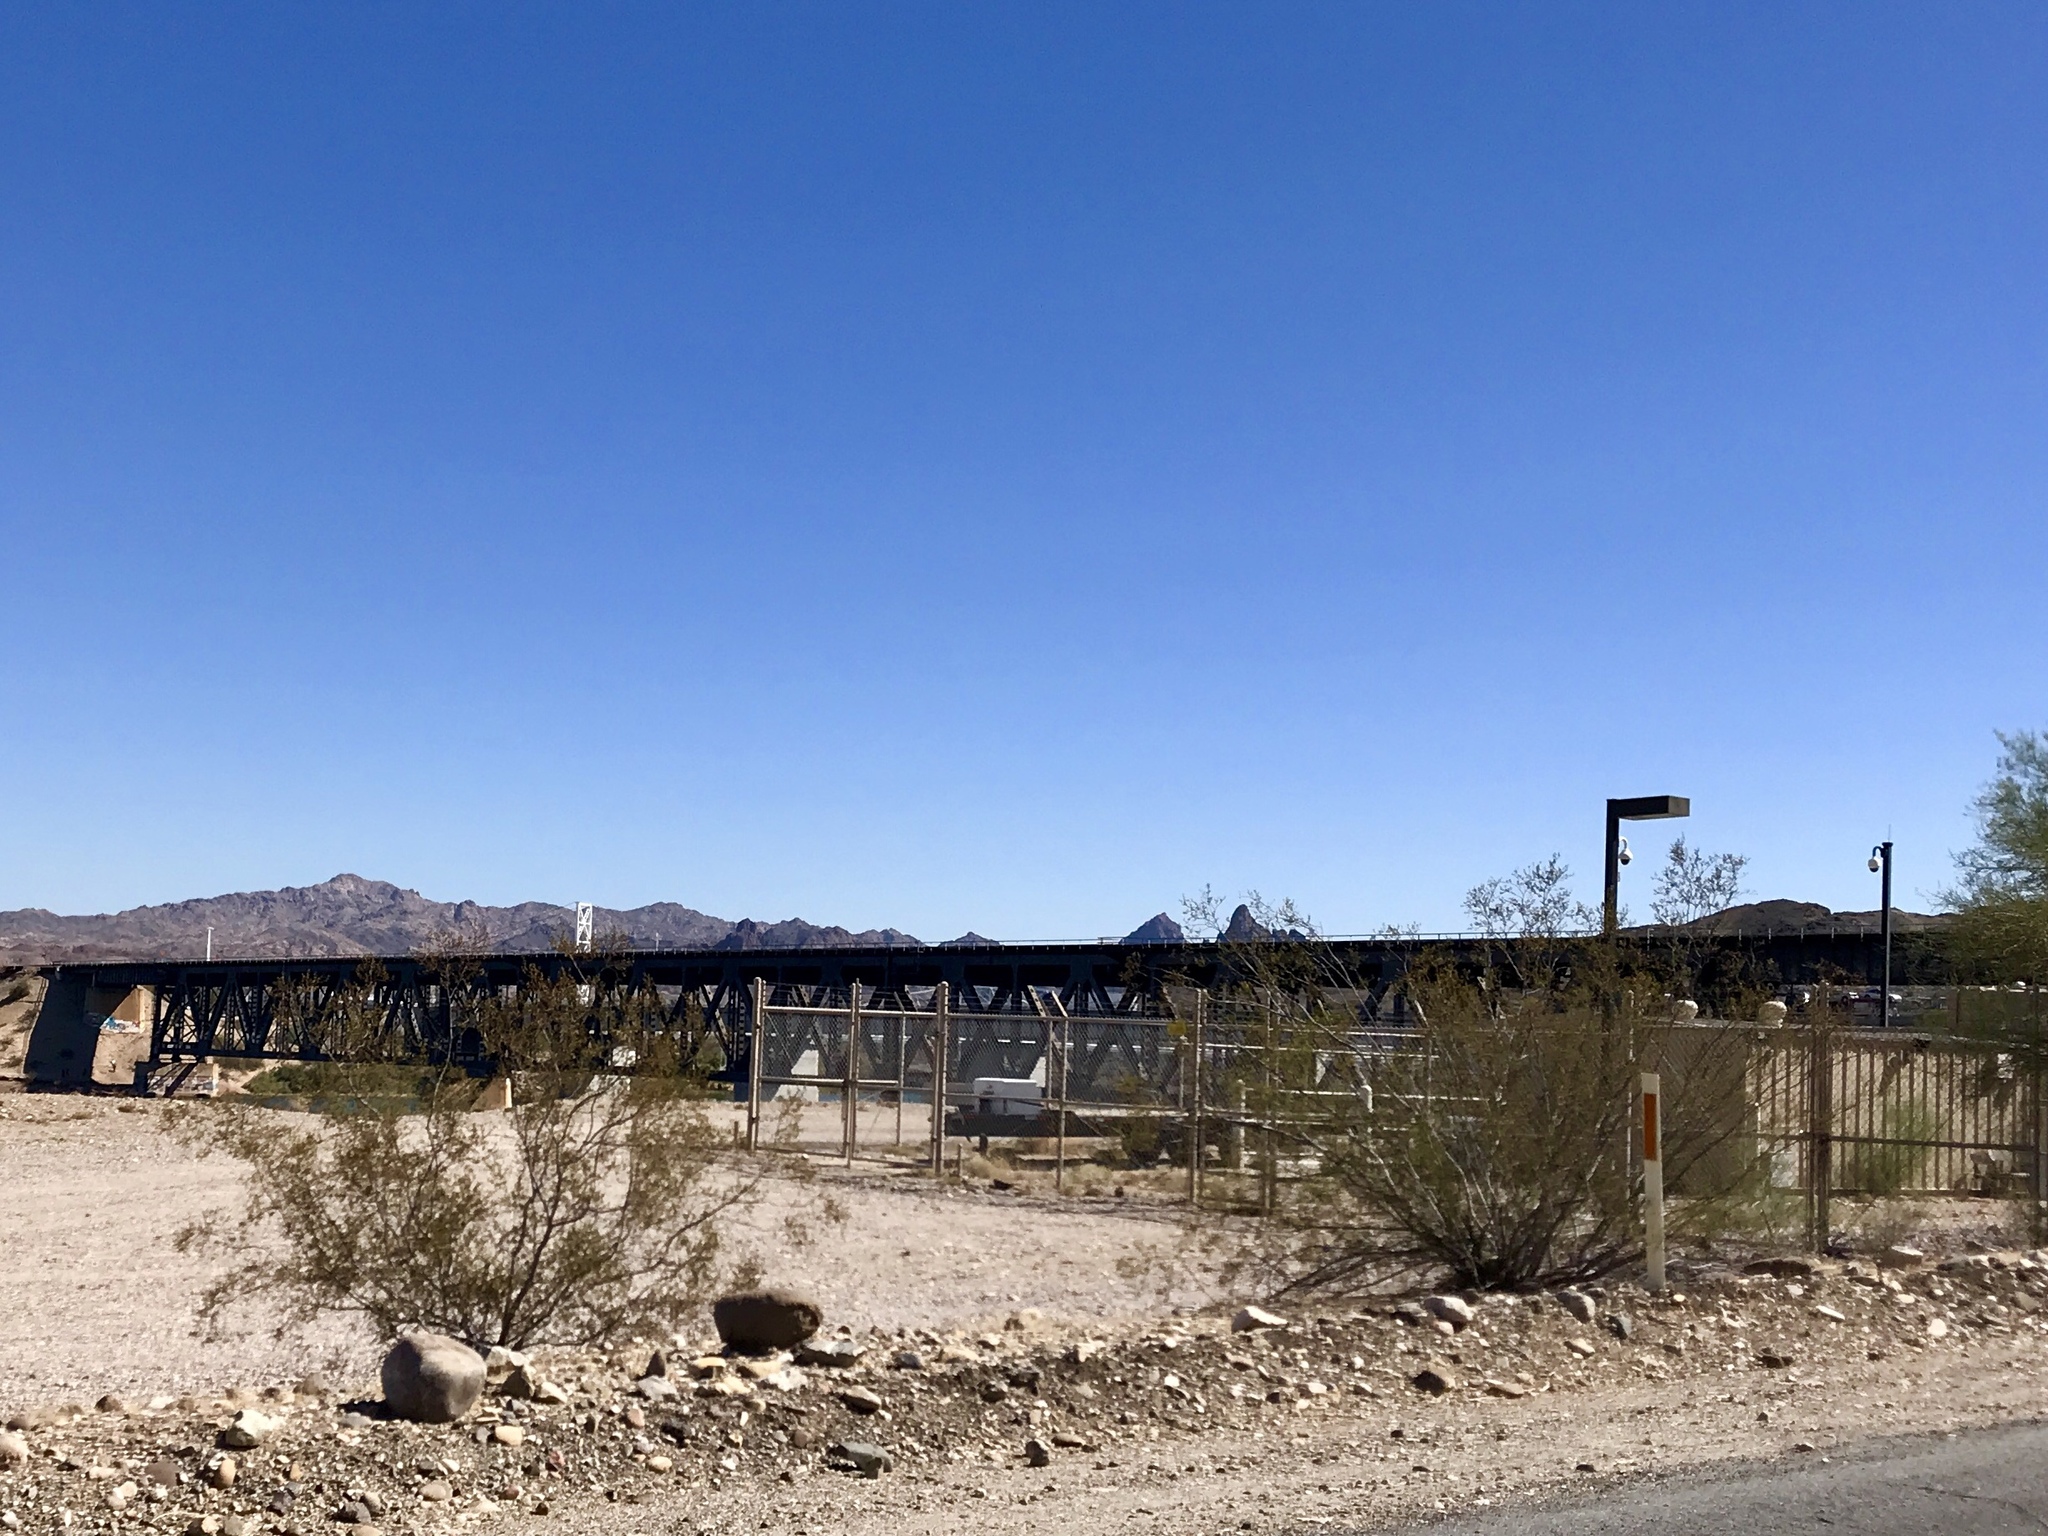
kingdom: Plantae
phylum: Tracheophyta
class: Magnoliopsida
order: Zygophyllales
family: Zygophyllaceae
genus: Larrea
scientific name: Larrea tridentata
